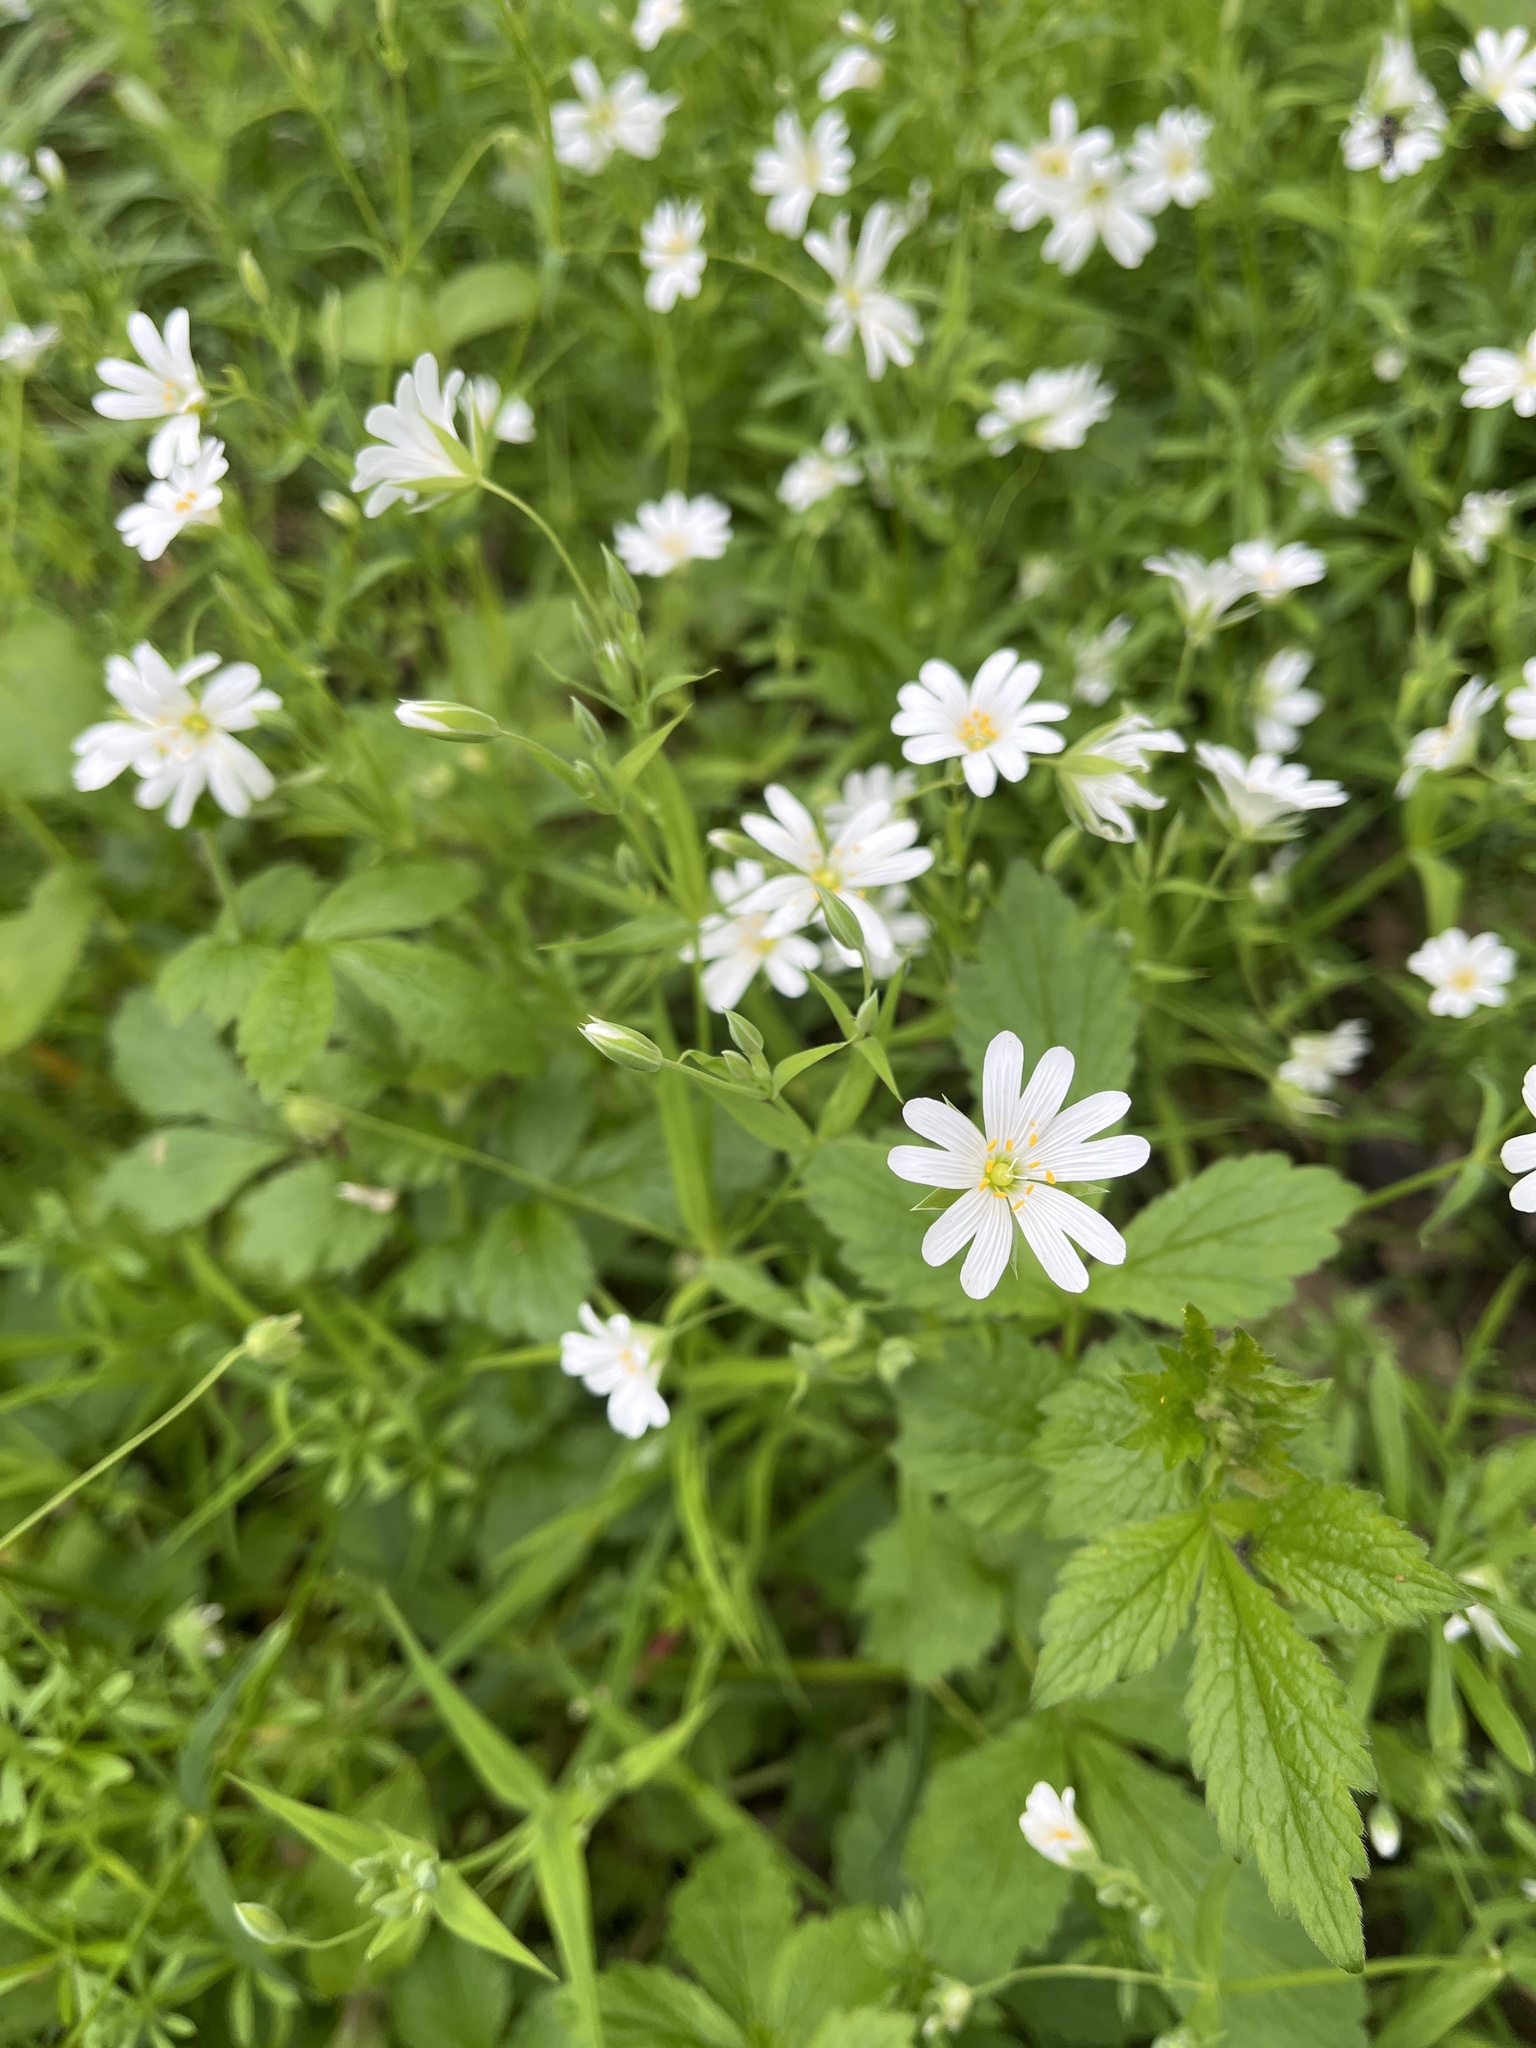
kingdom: Plantae
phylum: Tracheophyta
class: Magnoliopsida
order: Caryophyllales
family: Caryophyllaceae
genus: Rabelera
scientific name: Rabelera holostea
